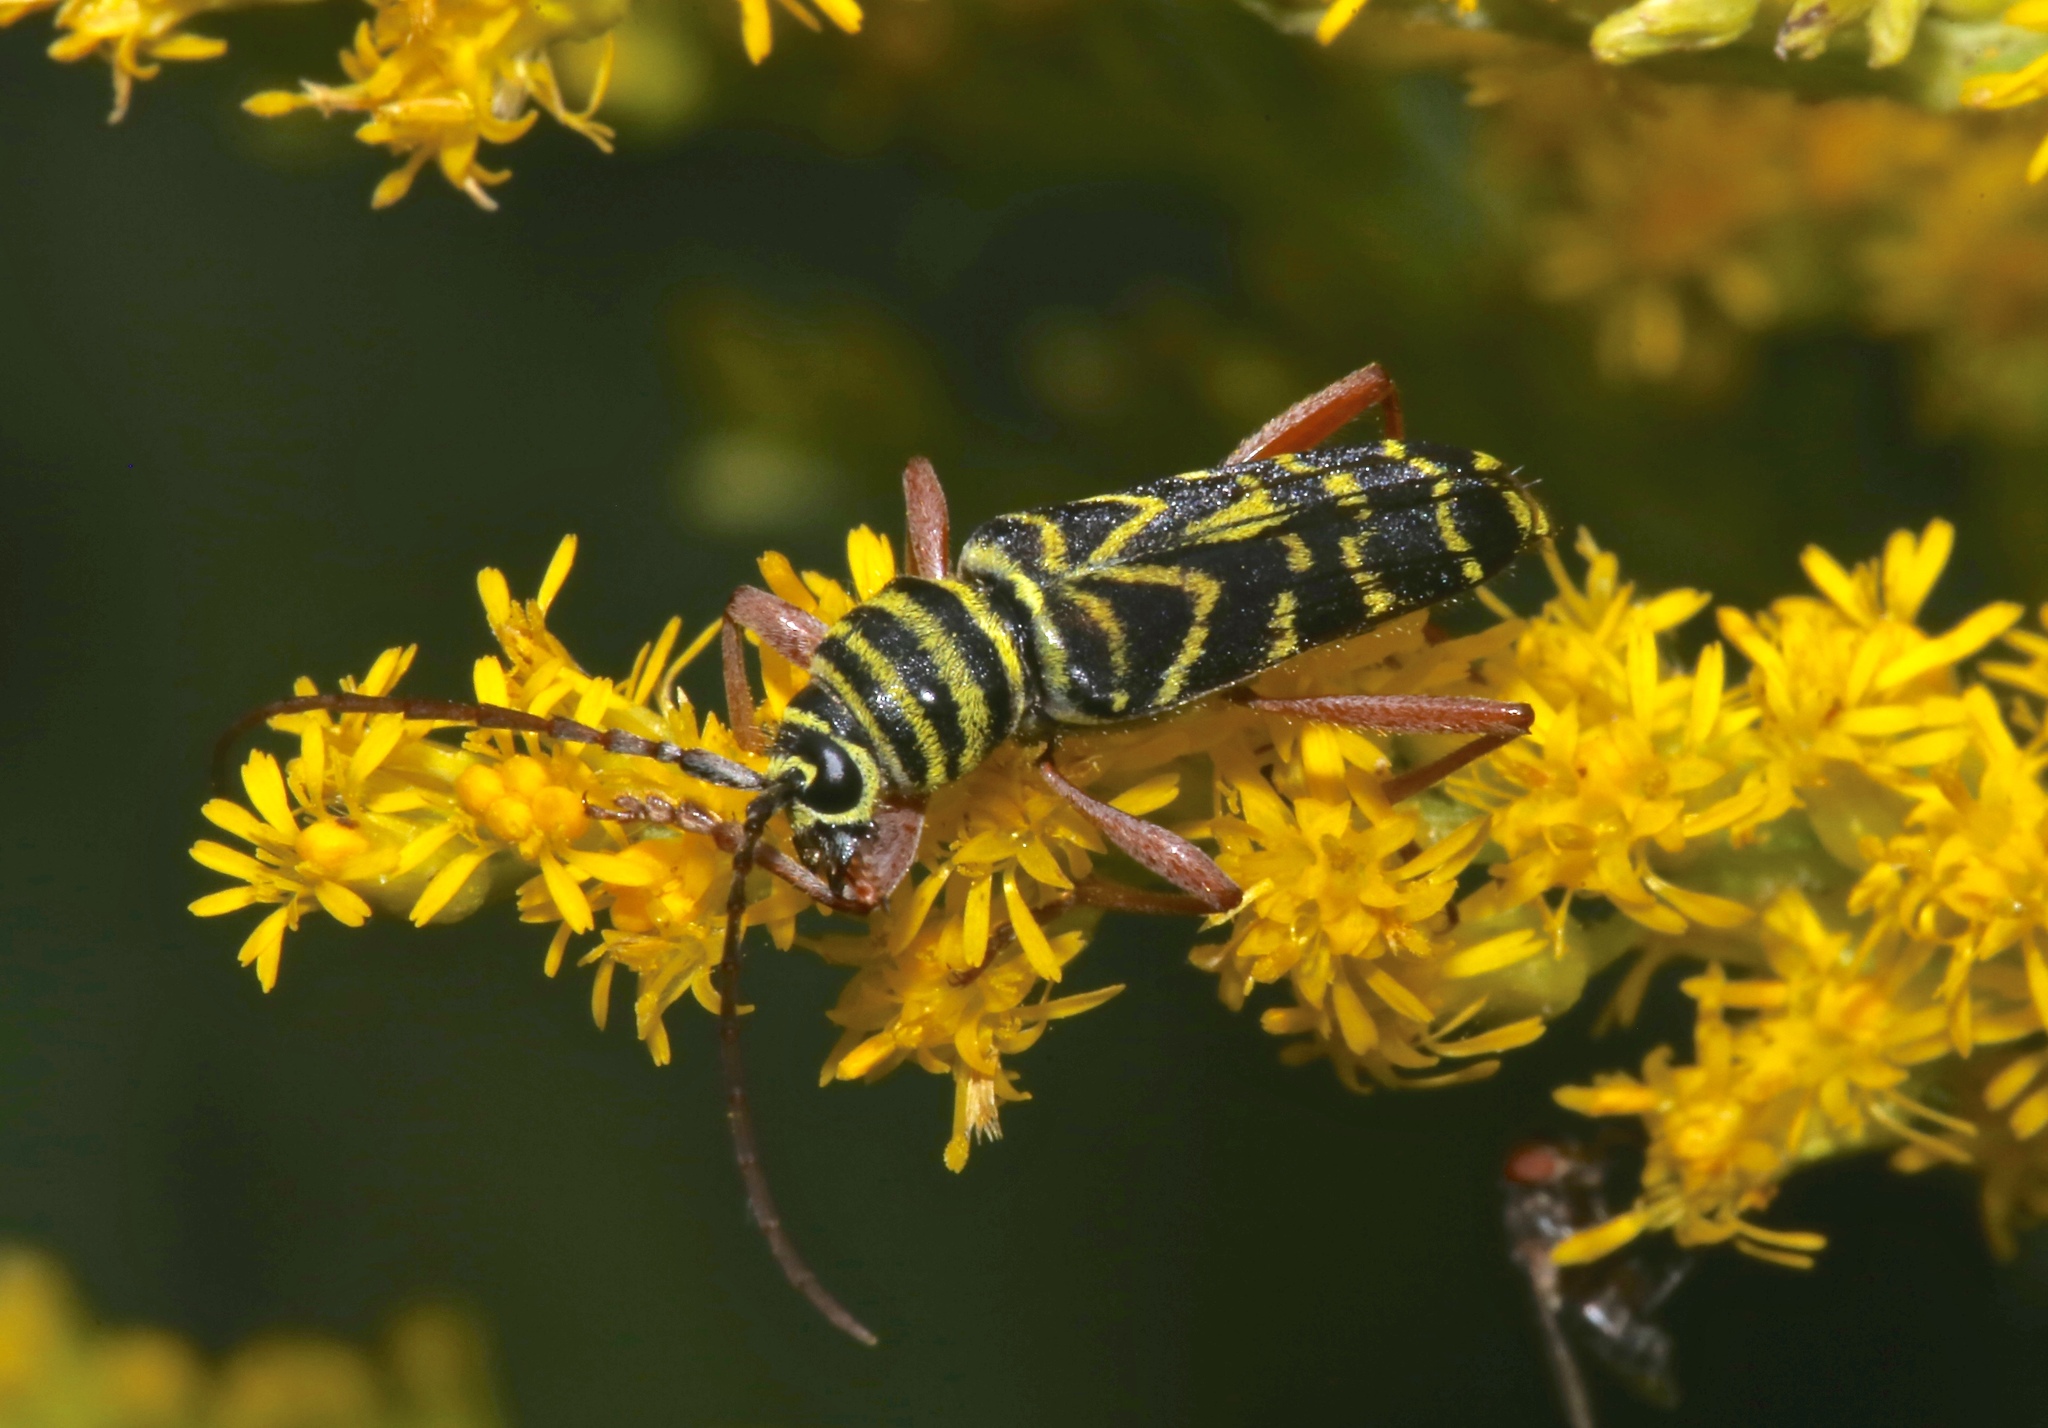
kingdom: Animalia
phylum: Arthropoda
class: Insecta
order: Coleoptera
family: Cerambycidae
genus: Megacyllene
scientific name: Megacyllene robiniae
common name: Locust borer
